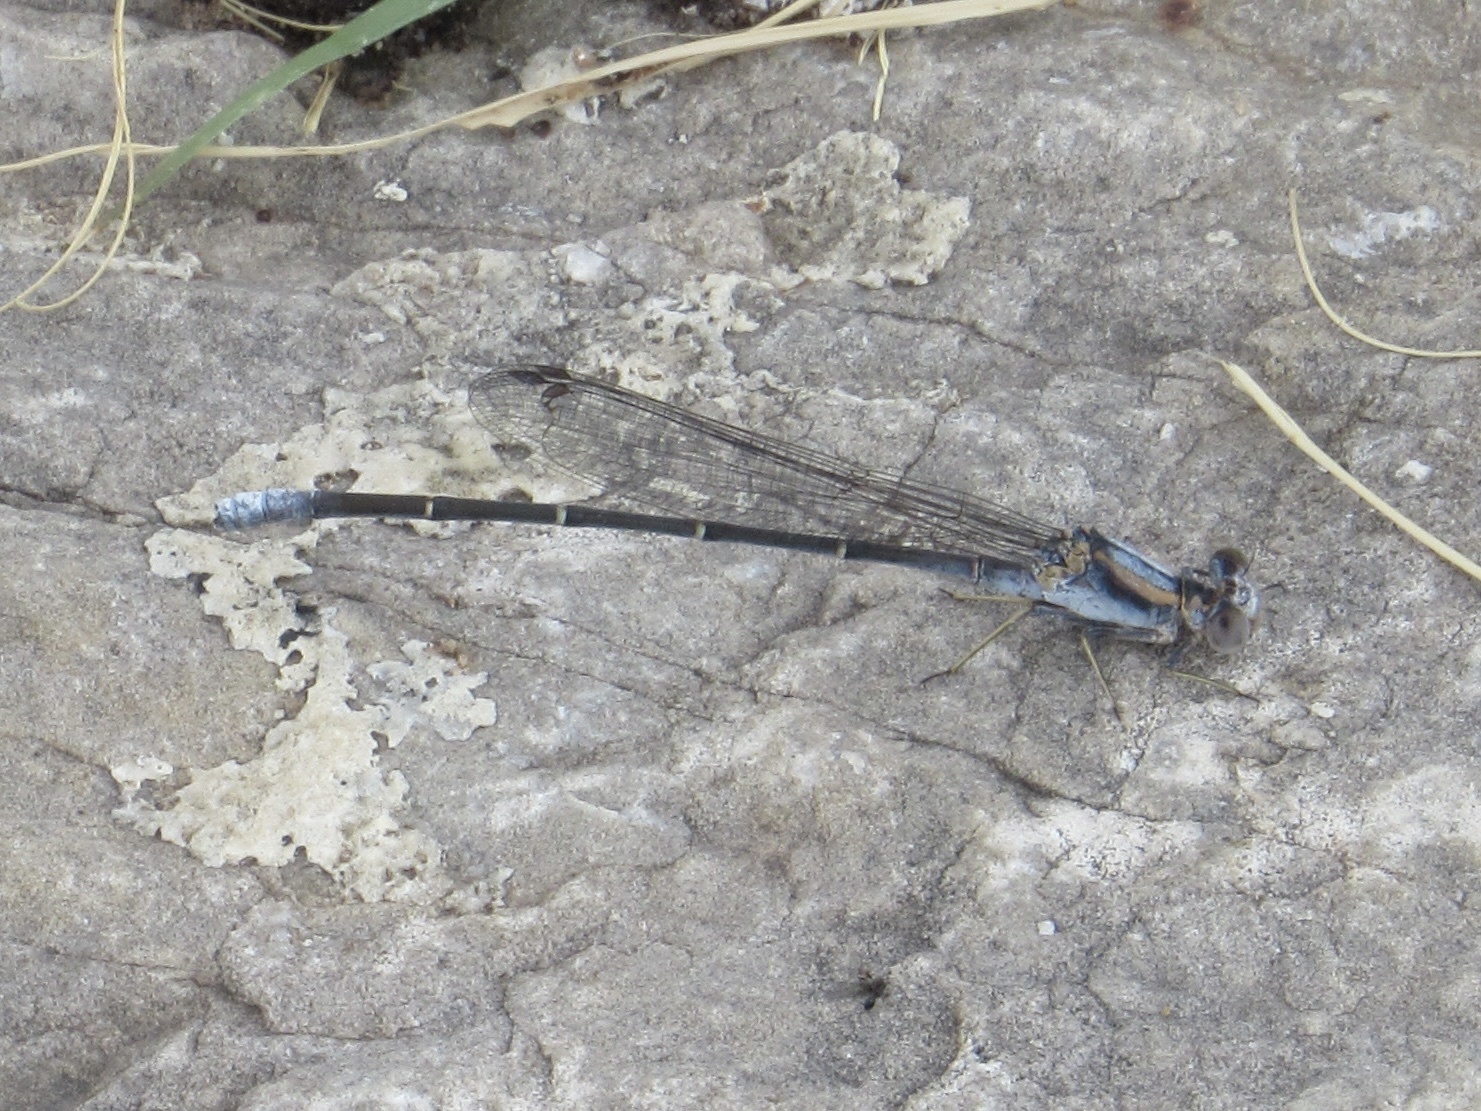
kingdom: Animalia
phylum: Arthropoda
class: Insecta
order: Odonata
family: Coenagrionidae
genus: Argia
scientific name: Argia moesta
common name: Powdered dancer
